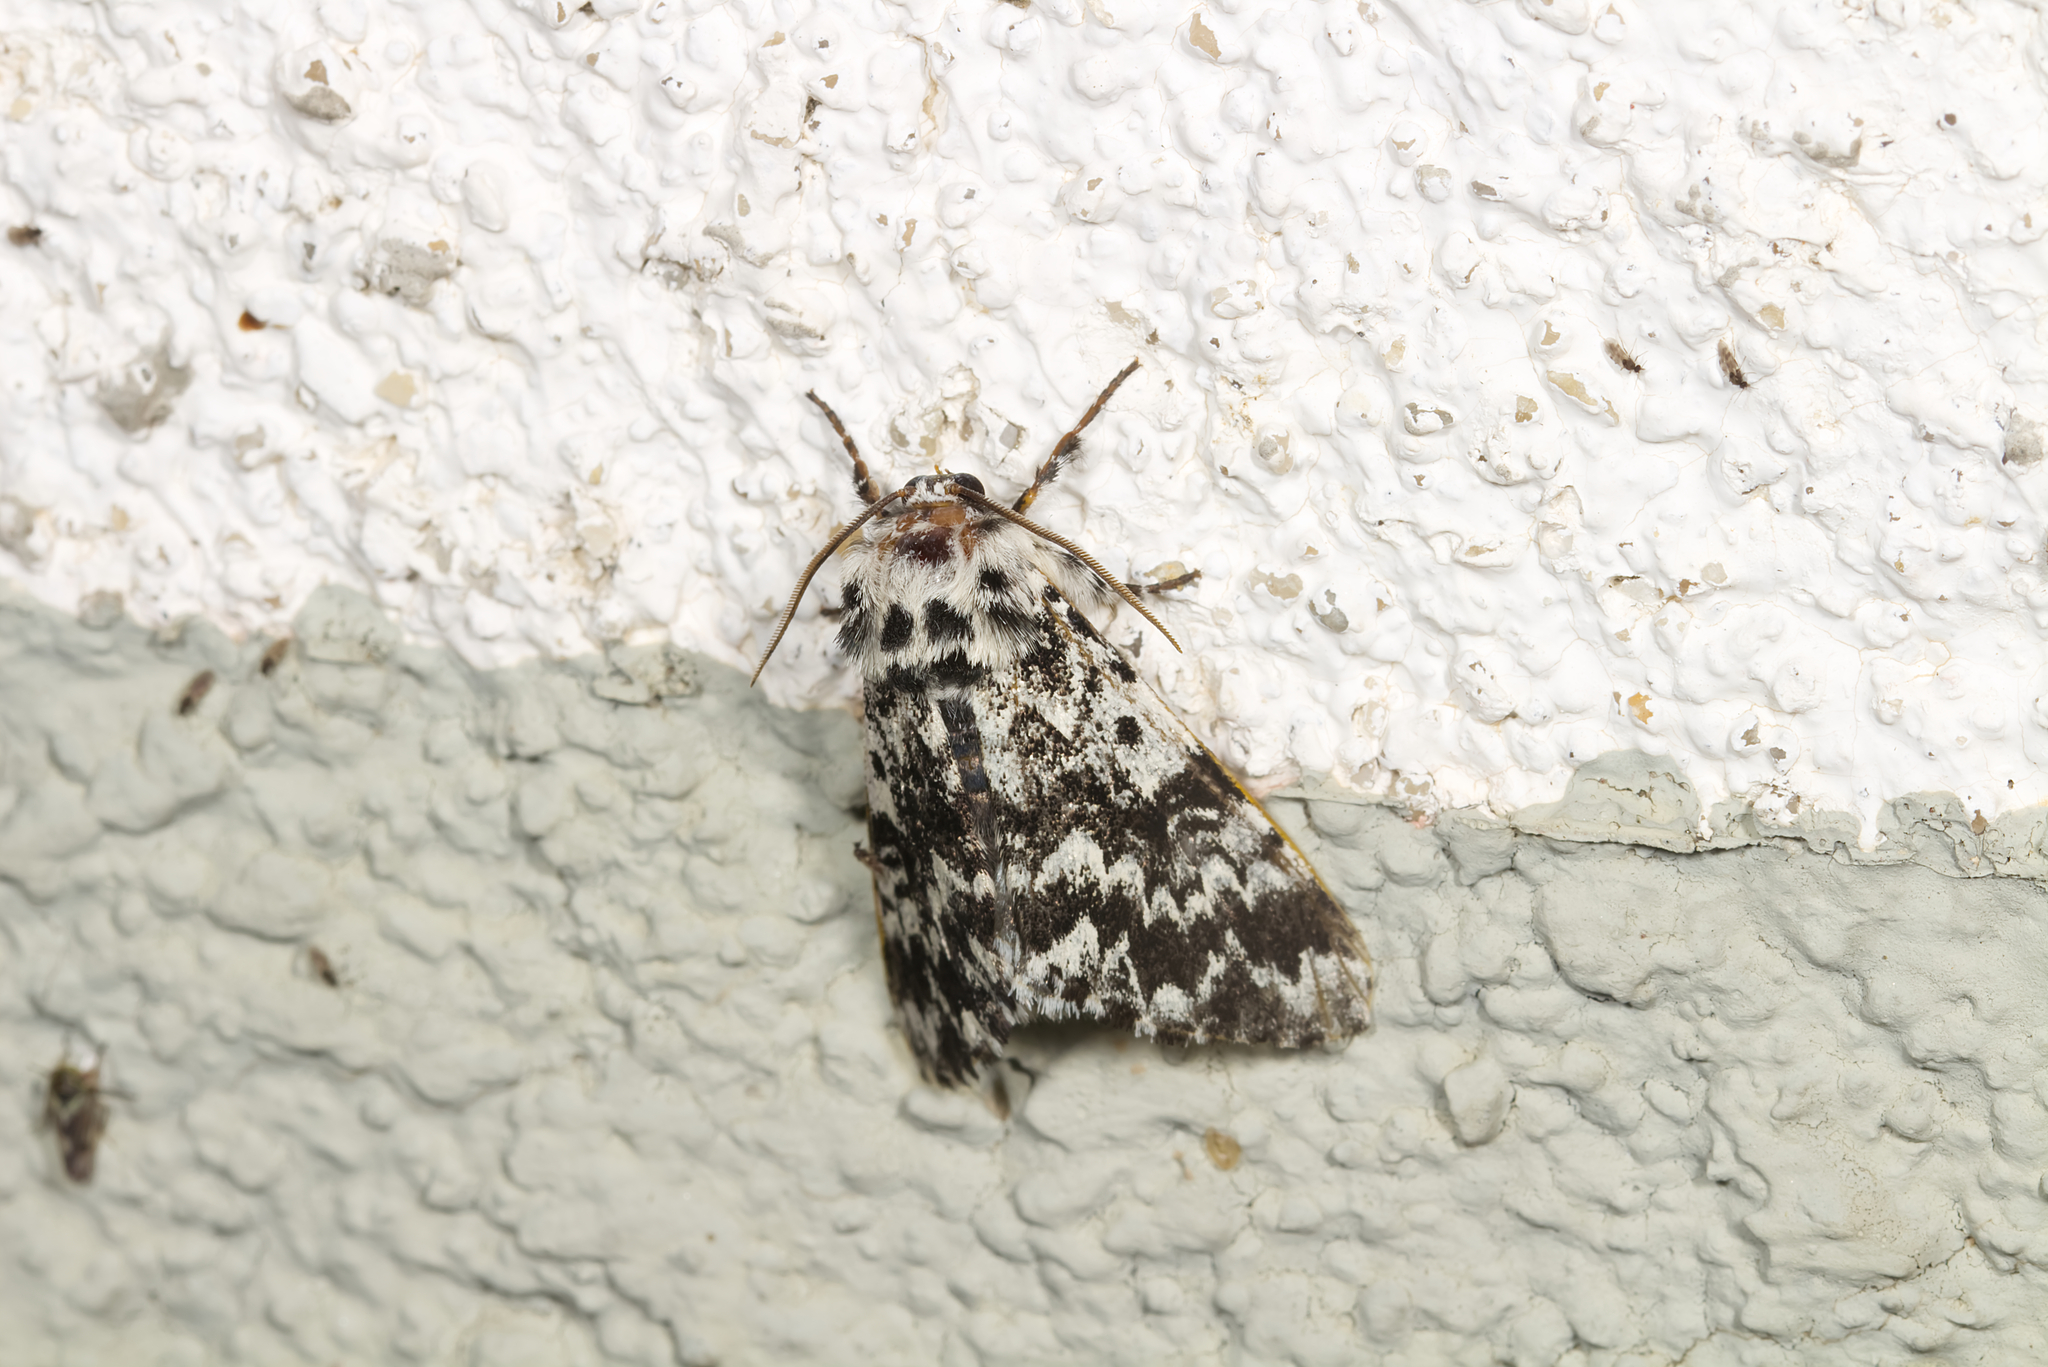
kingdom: Animalia
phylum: Arthropoda
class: Insecta
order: Lepidoptera
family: Noctuidae
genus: Panthea
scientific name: Panthea coenobita
